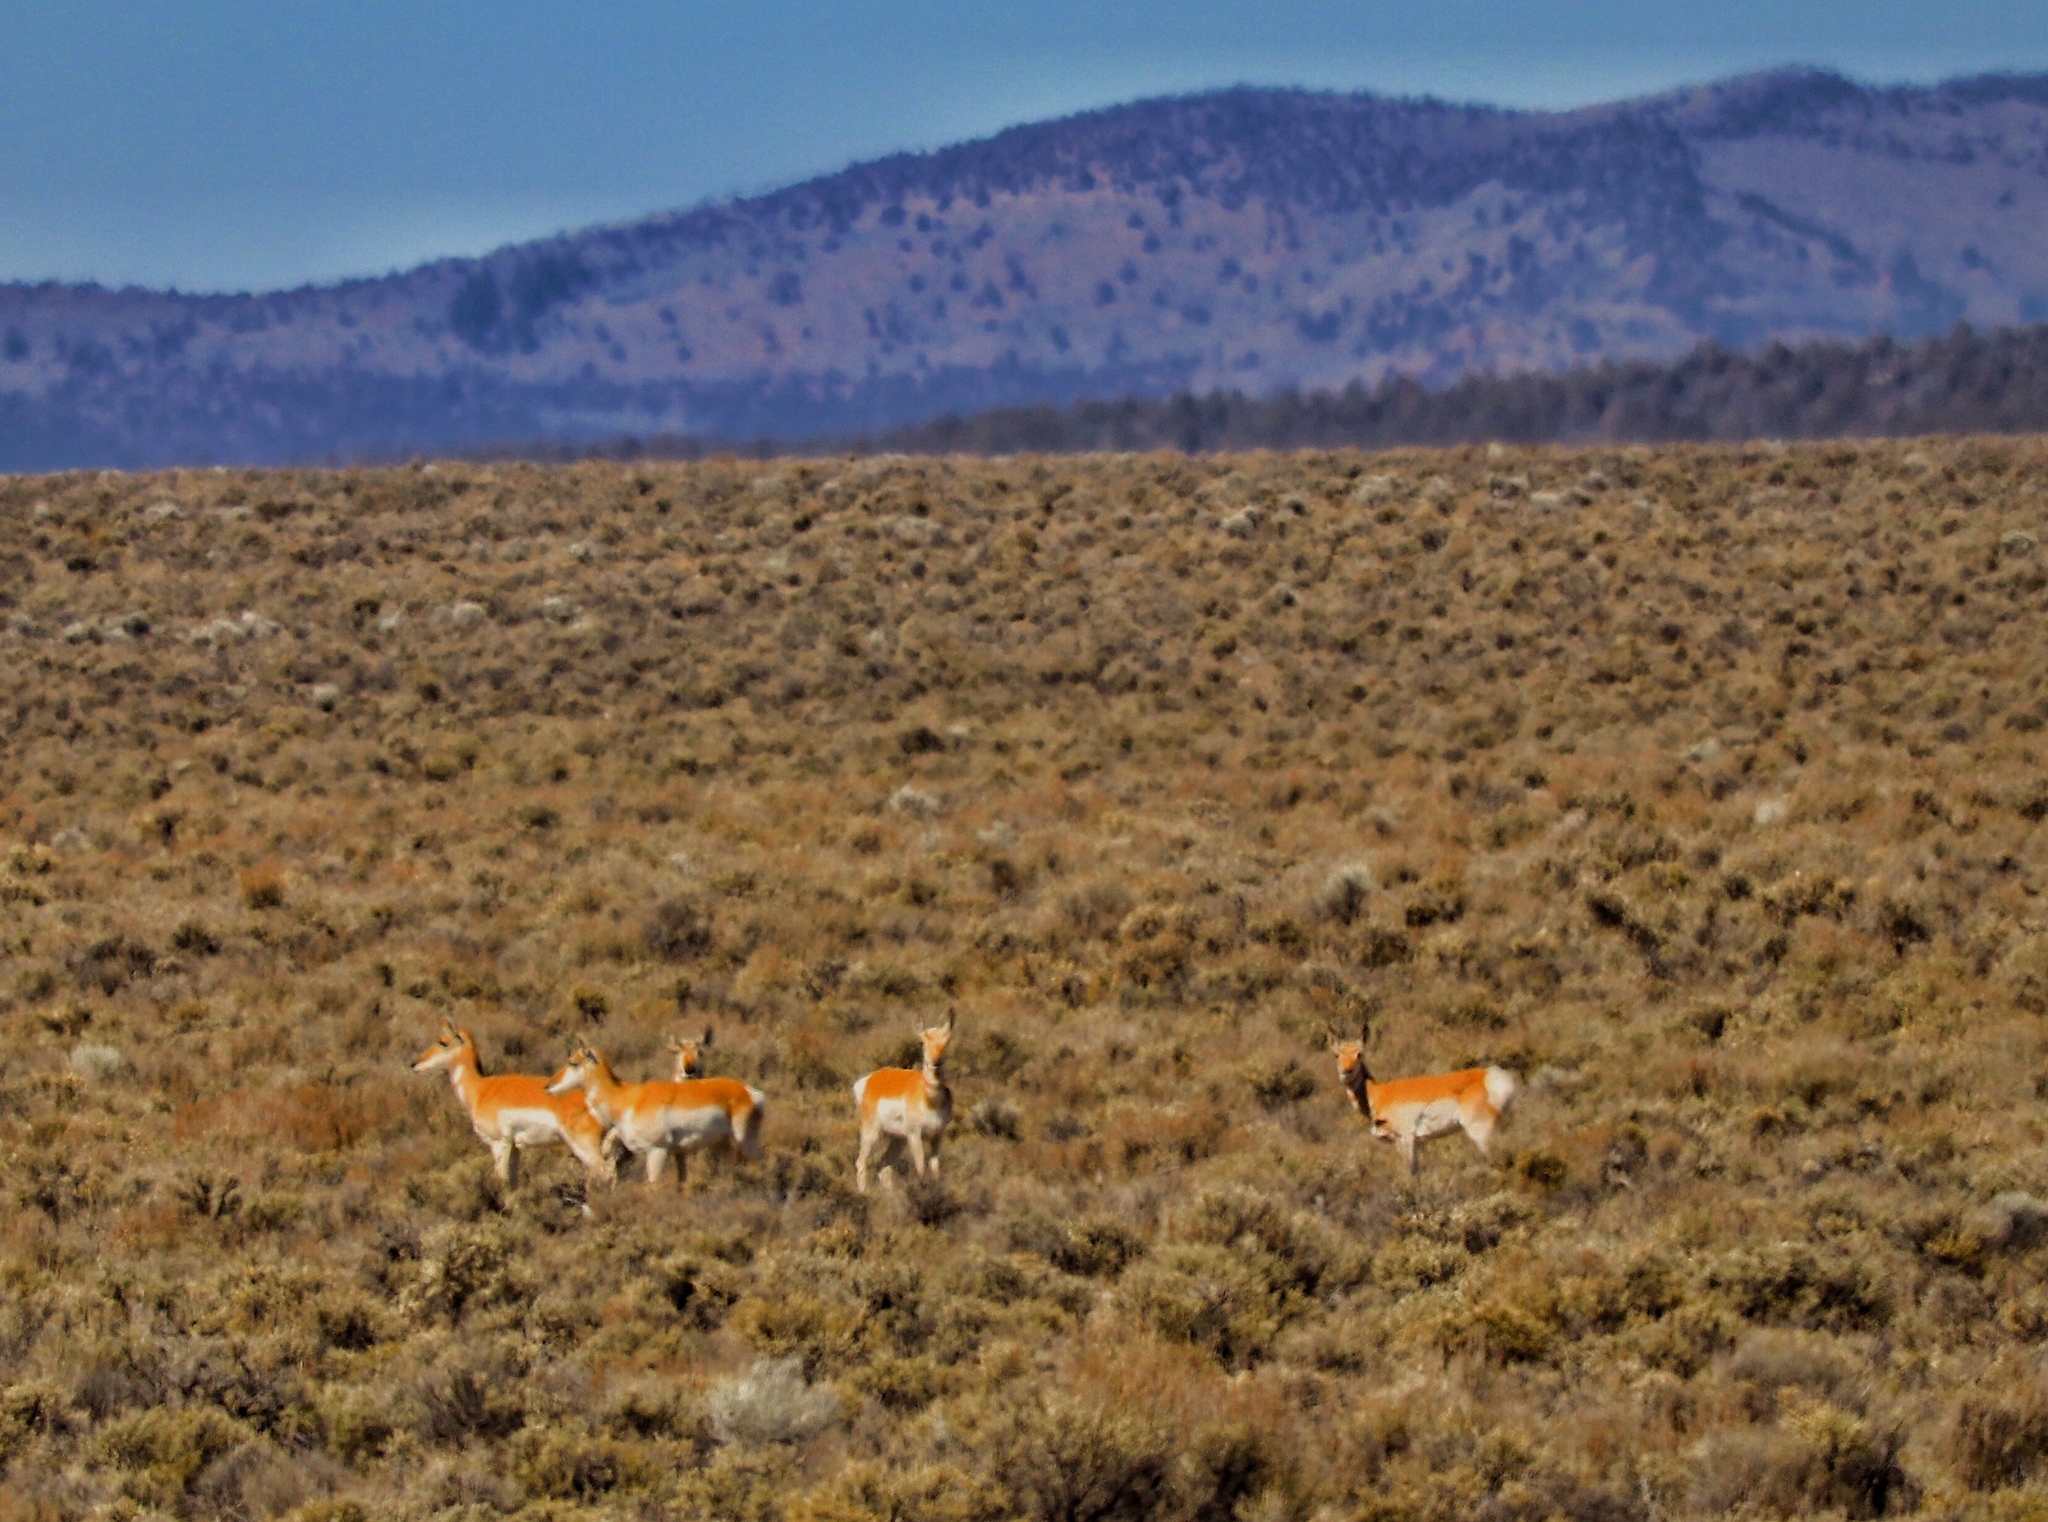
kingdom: Animalia
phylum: Chordata
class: Mammalia
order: Artiodactyla
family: Antilocapridae
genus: Antilocapra
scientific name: Antilocapra americana
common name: Pronghorn
